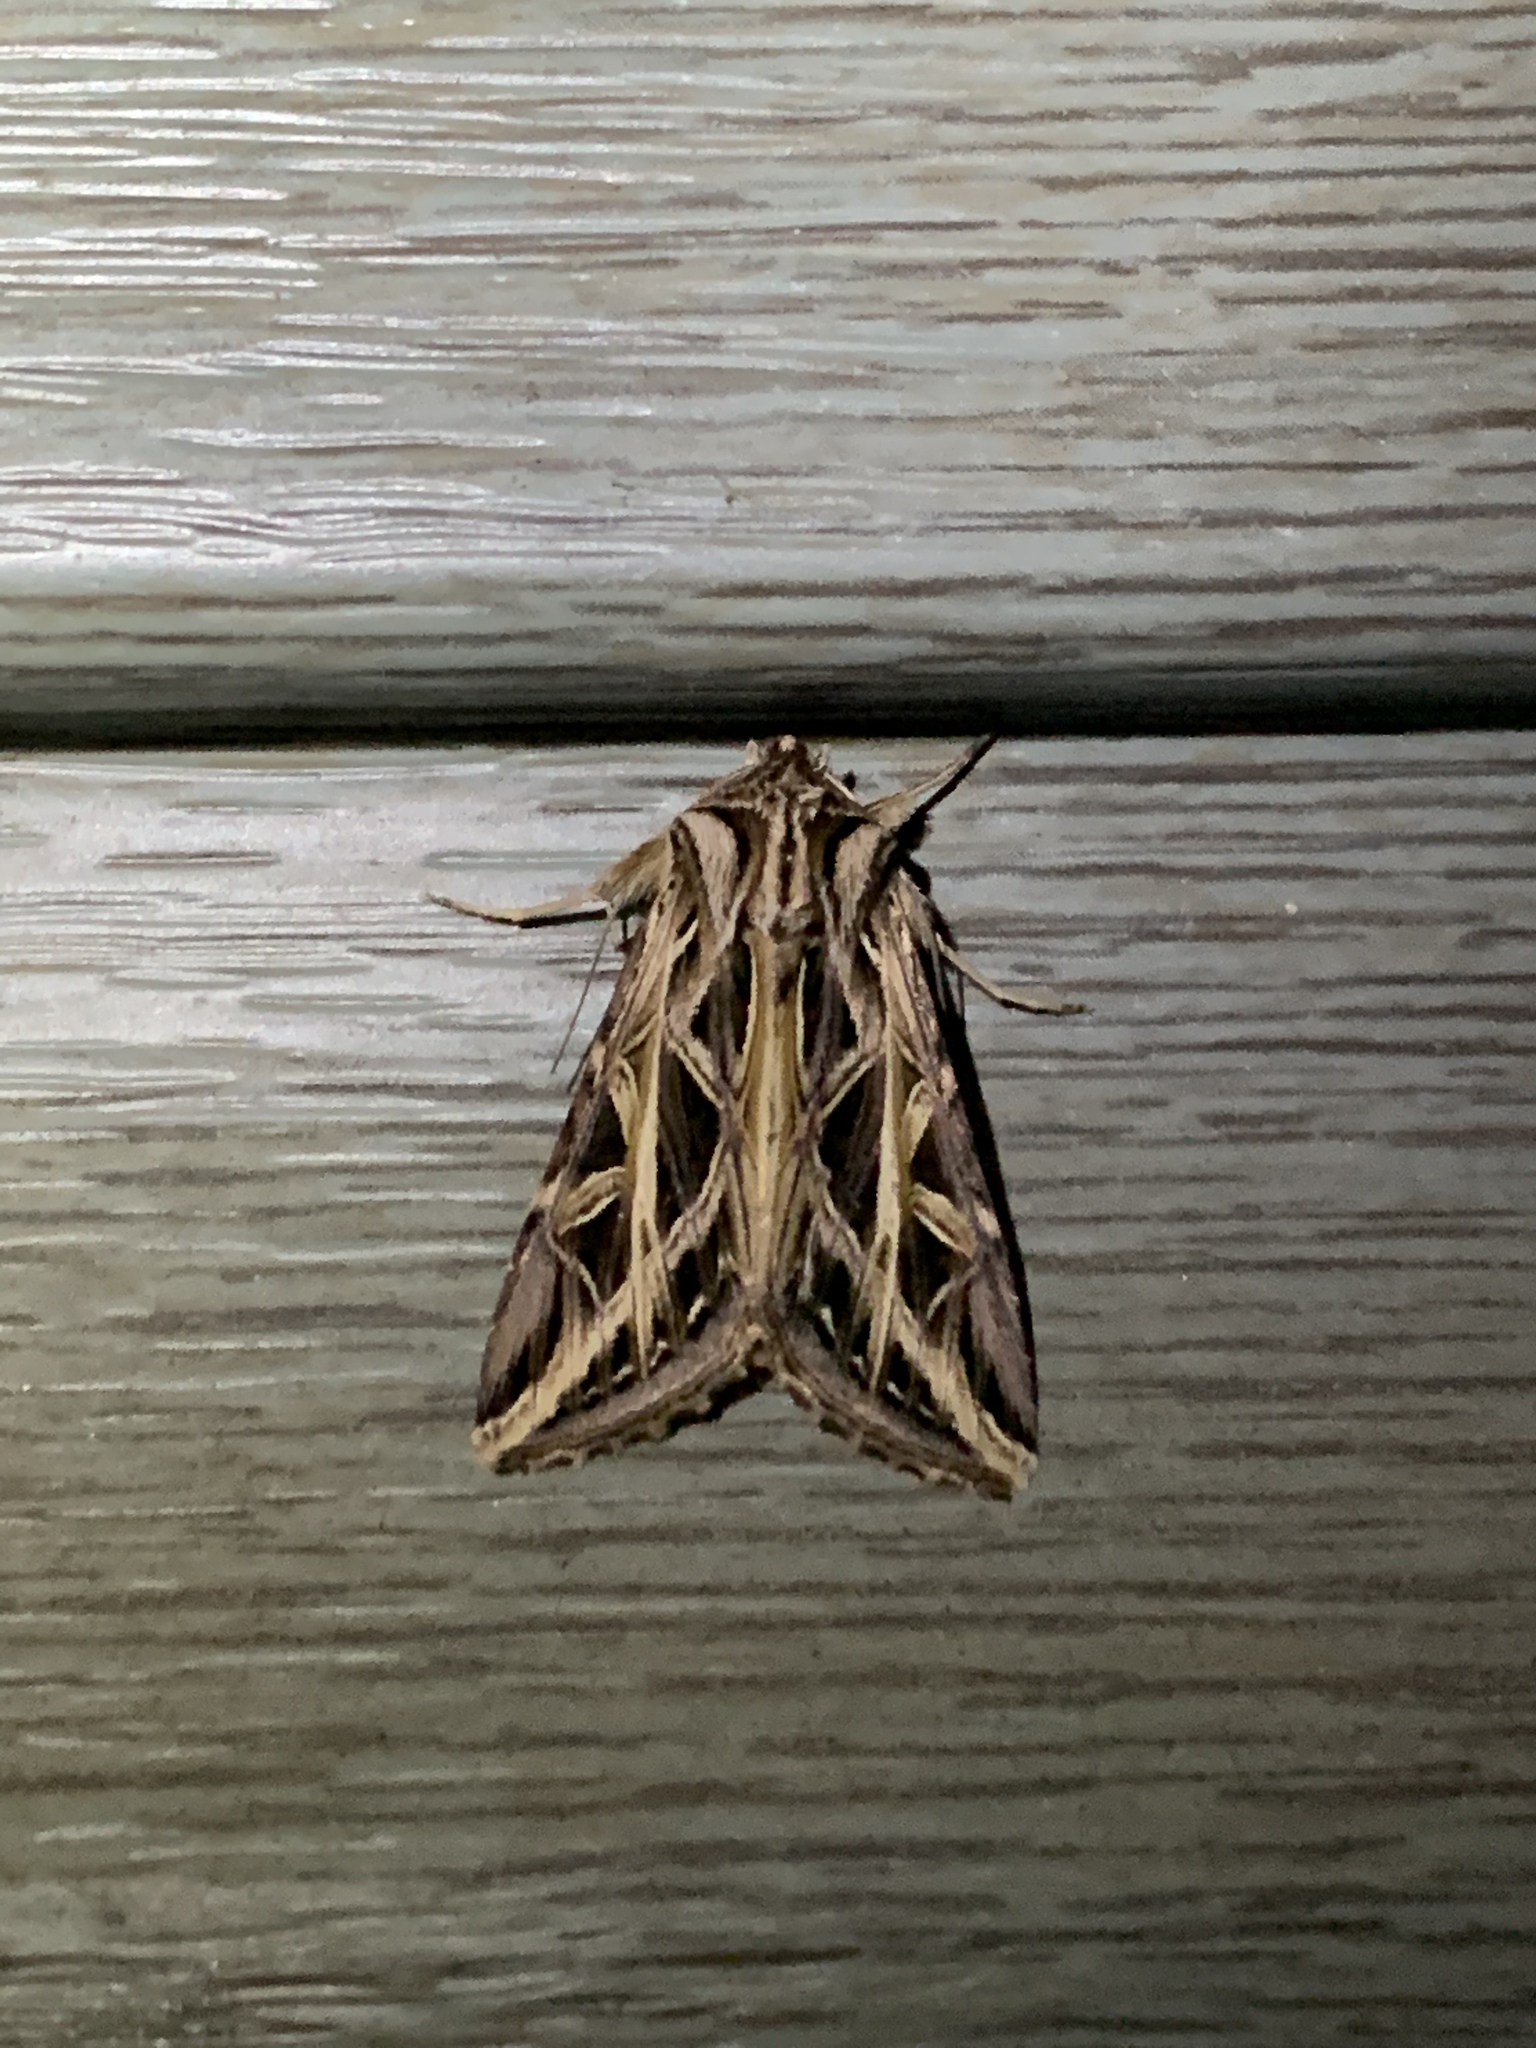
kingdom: Animalia
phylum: Arthropoda
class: Insecta
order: Lepidoptera
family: Noctuidae
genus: Dargida
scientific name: Dargida procinctus
